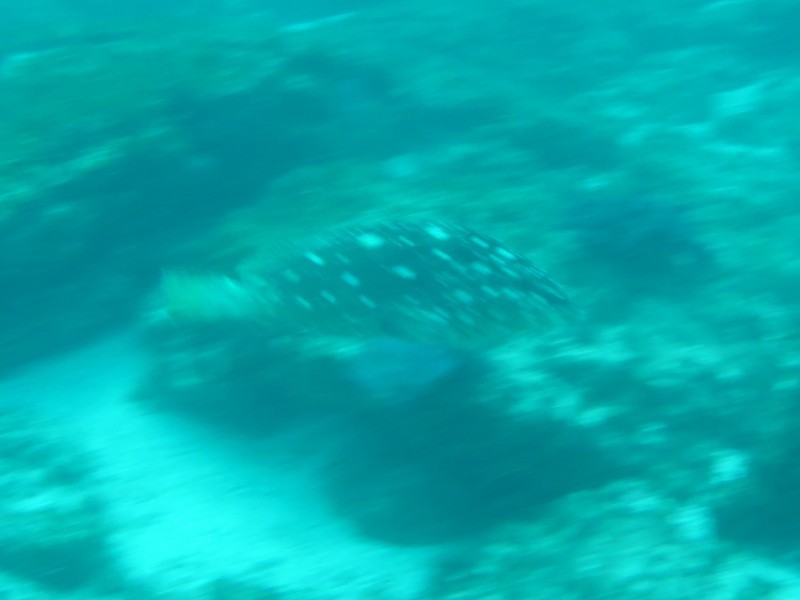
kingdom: Animalia
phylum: Chordata
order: Perciformes
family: Serranidae
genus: Epinephelus
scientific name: Epinephelus labriformis
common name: Flag cabrilla
